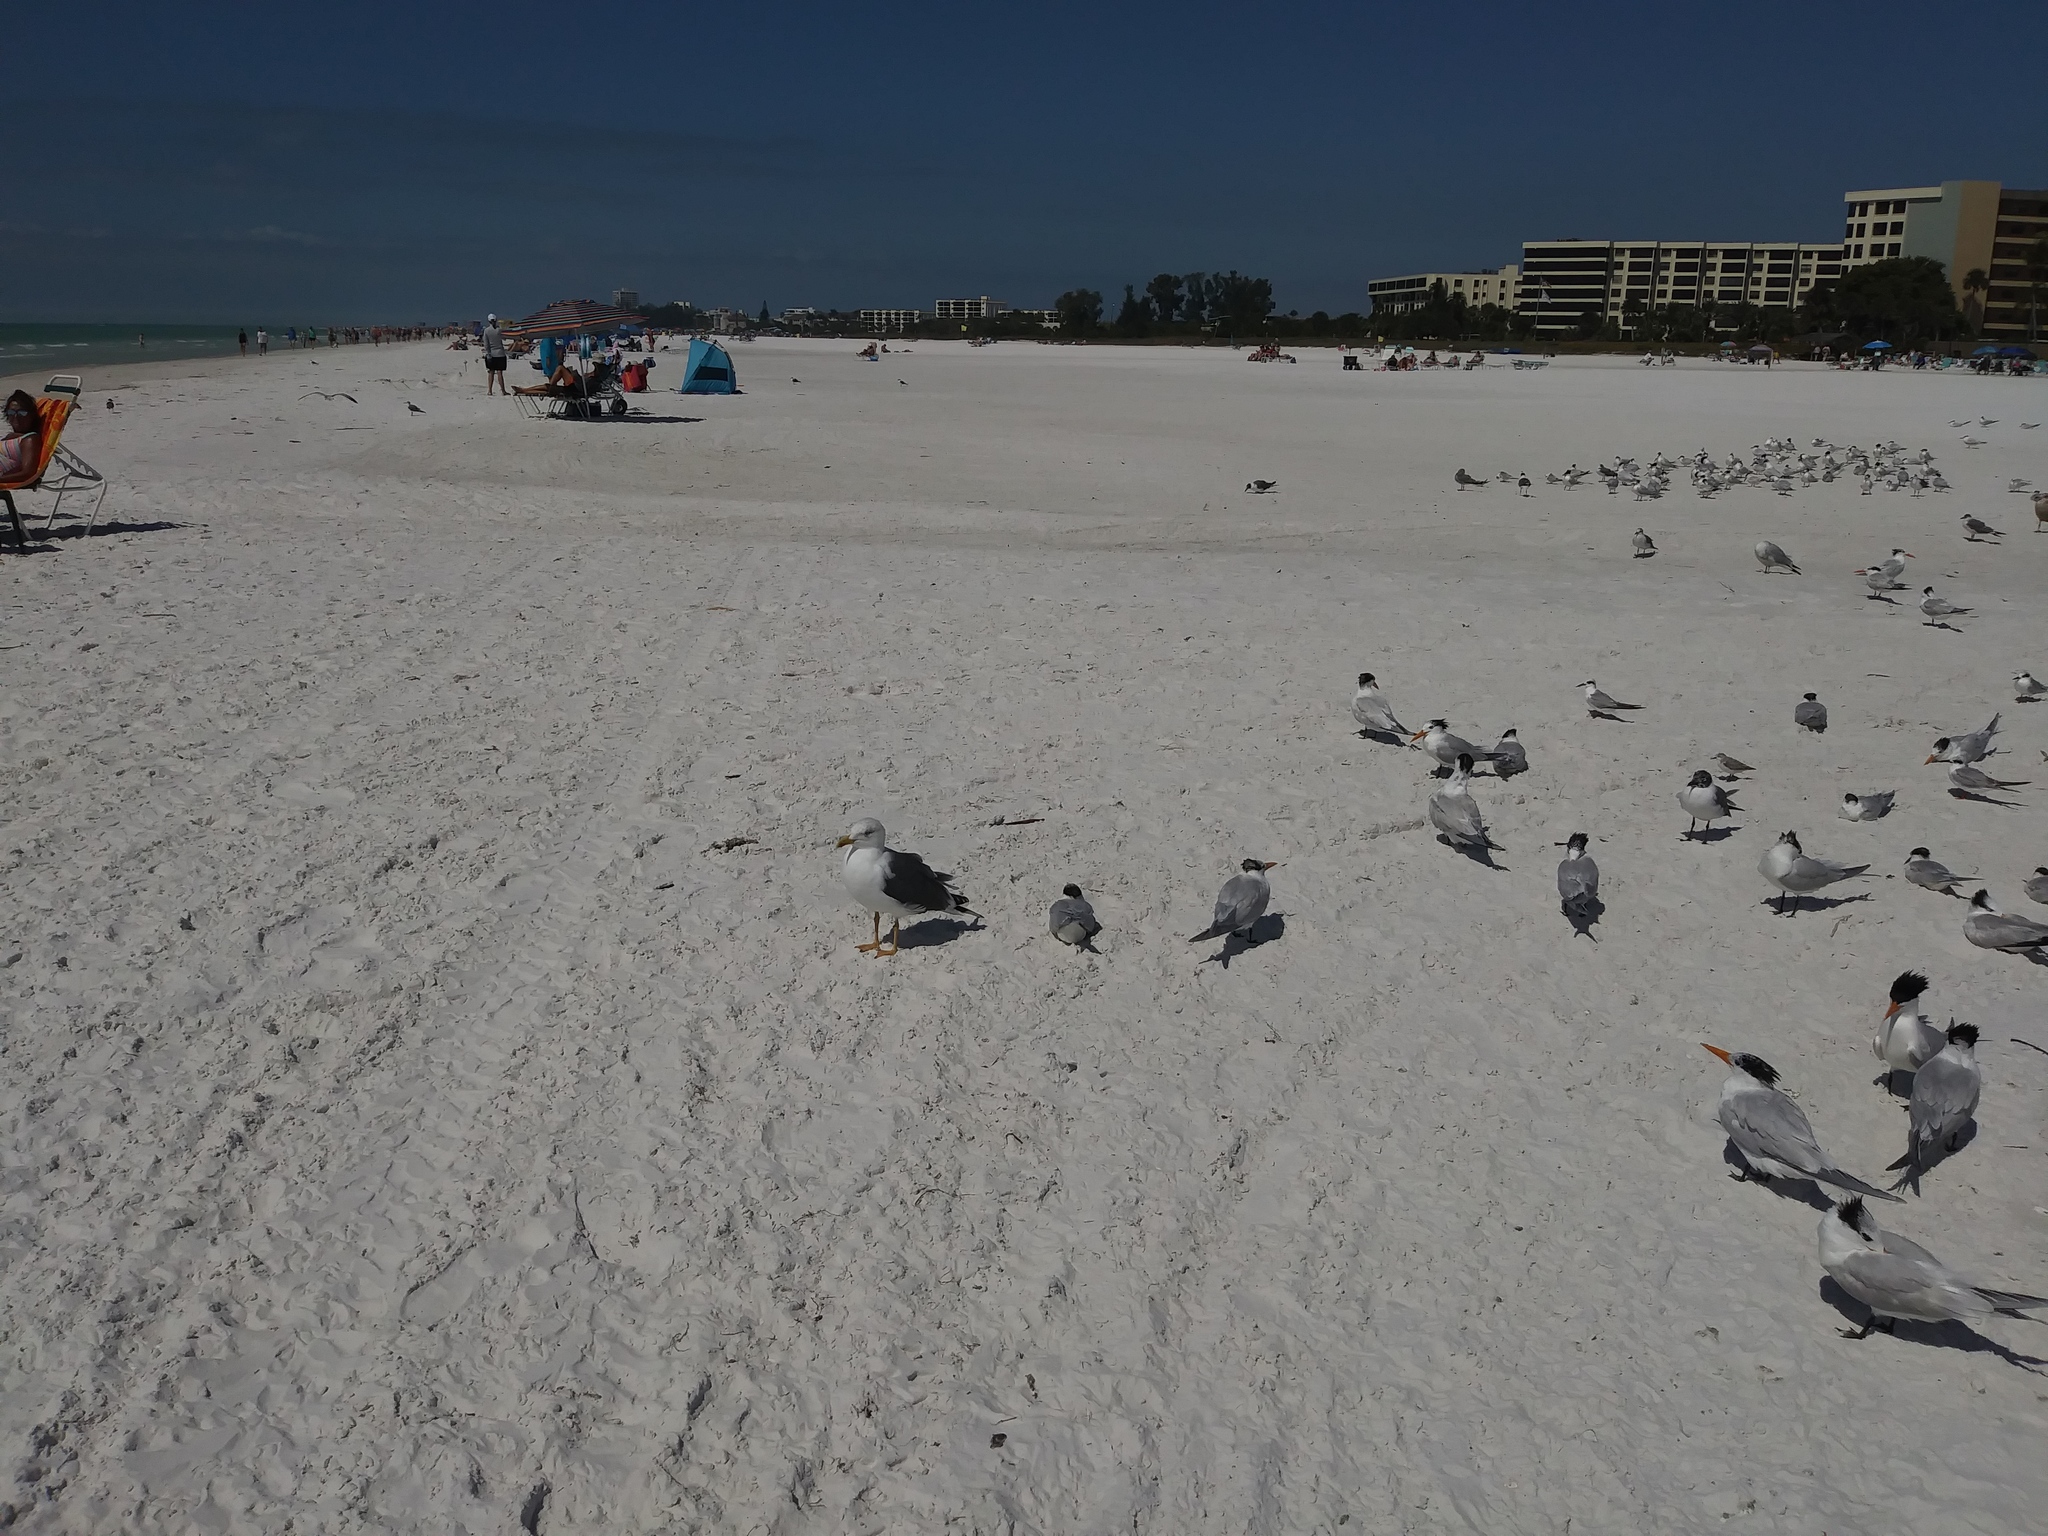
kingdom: Animalia
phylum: Chordata
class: Aves
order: Charadriiformes
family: Laridae
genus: Sterna
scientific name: Sterna forsteri
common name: Forster's tern
